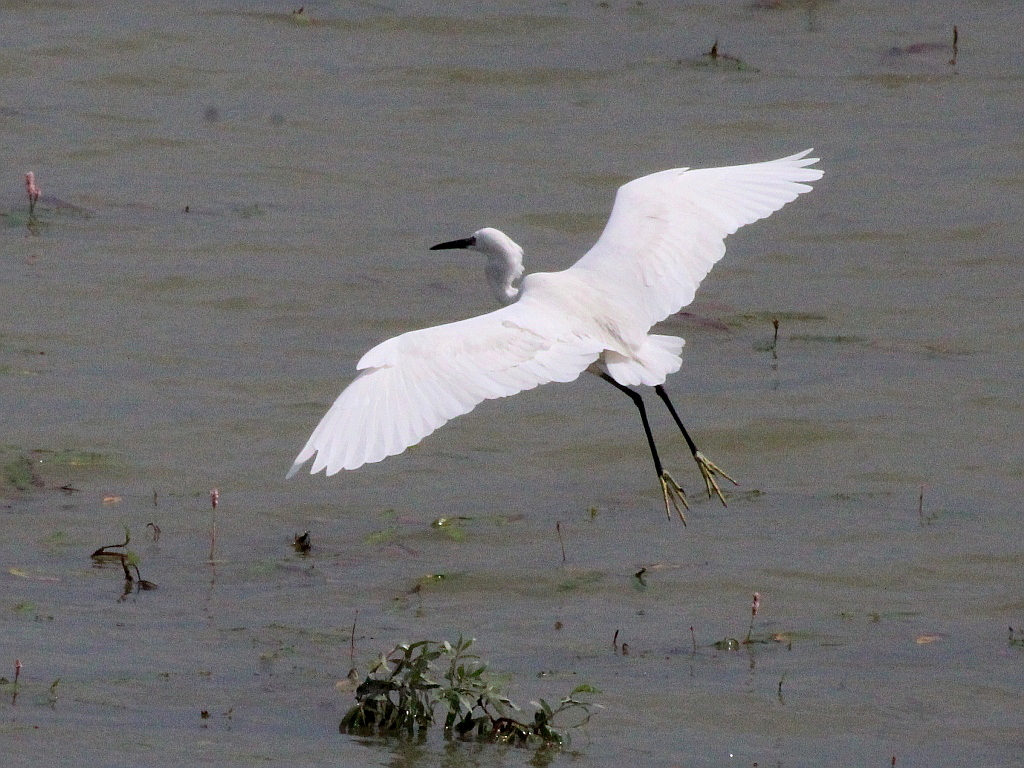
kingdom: Animalia
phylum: Chordata
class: Aves
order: Pelecaniformes
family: Ardeidae
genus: Egretta
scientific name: Egretta garzetta
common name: Little egret
